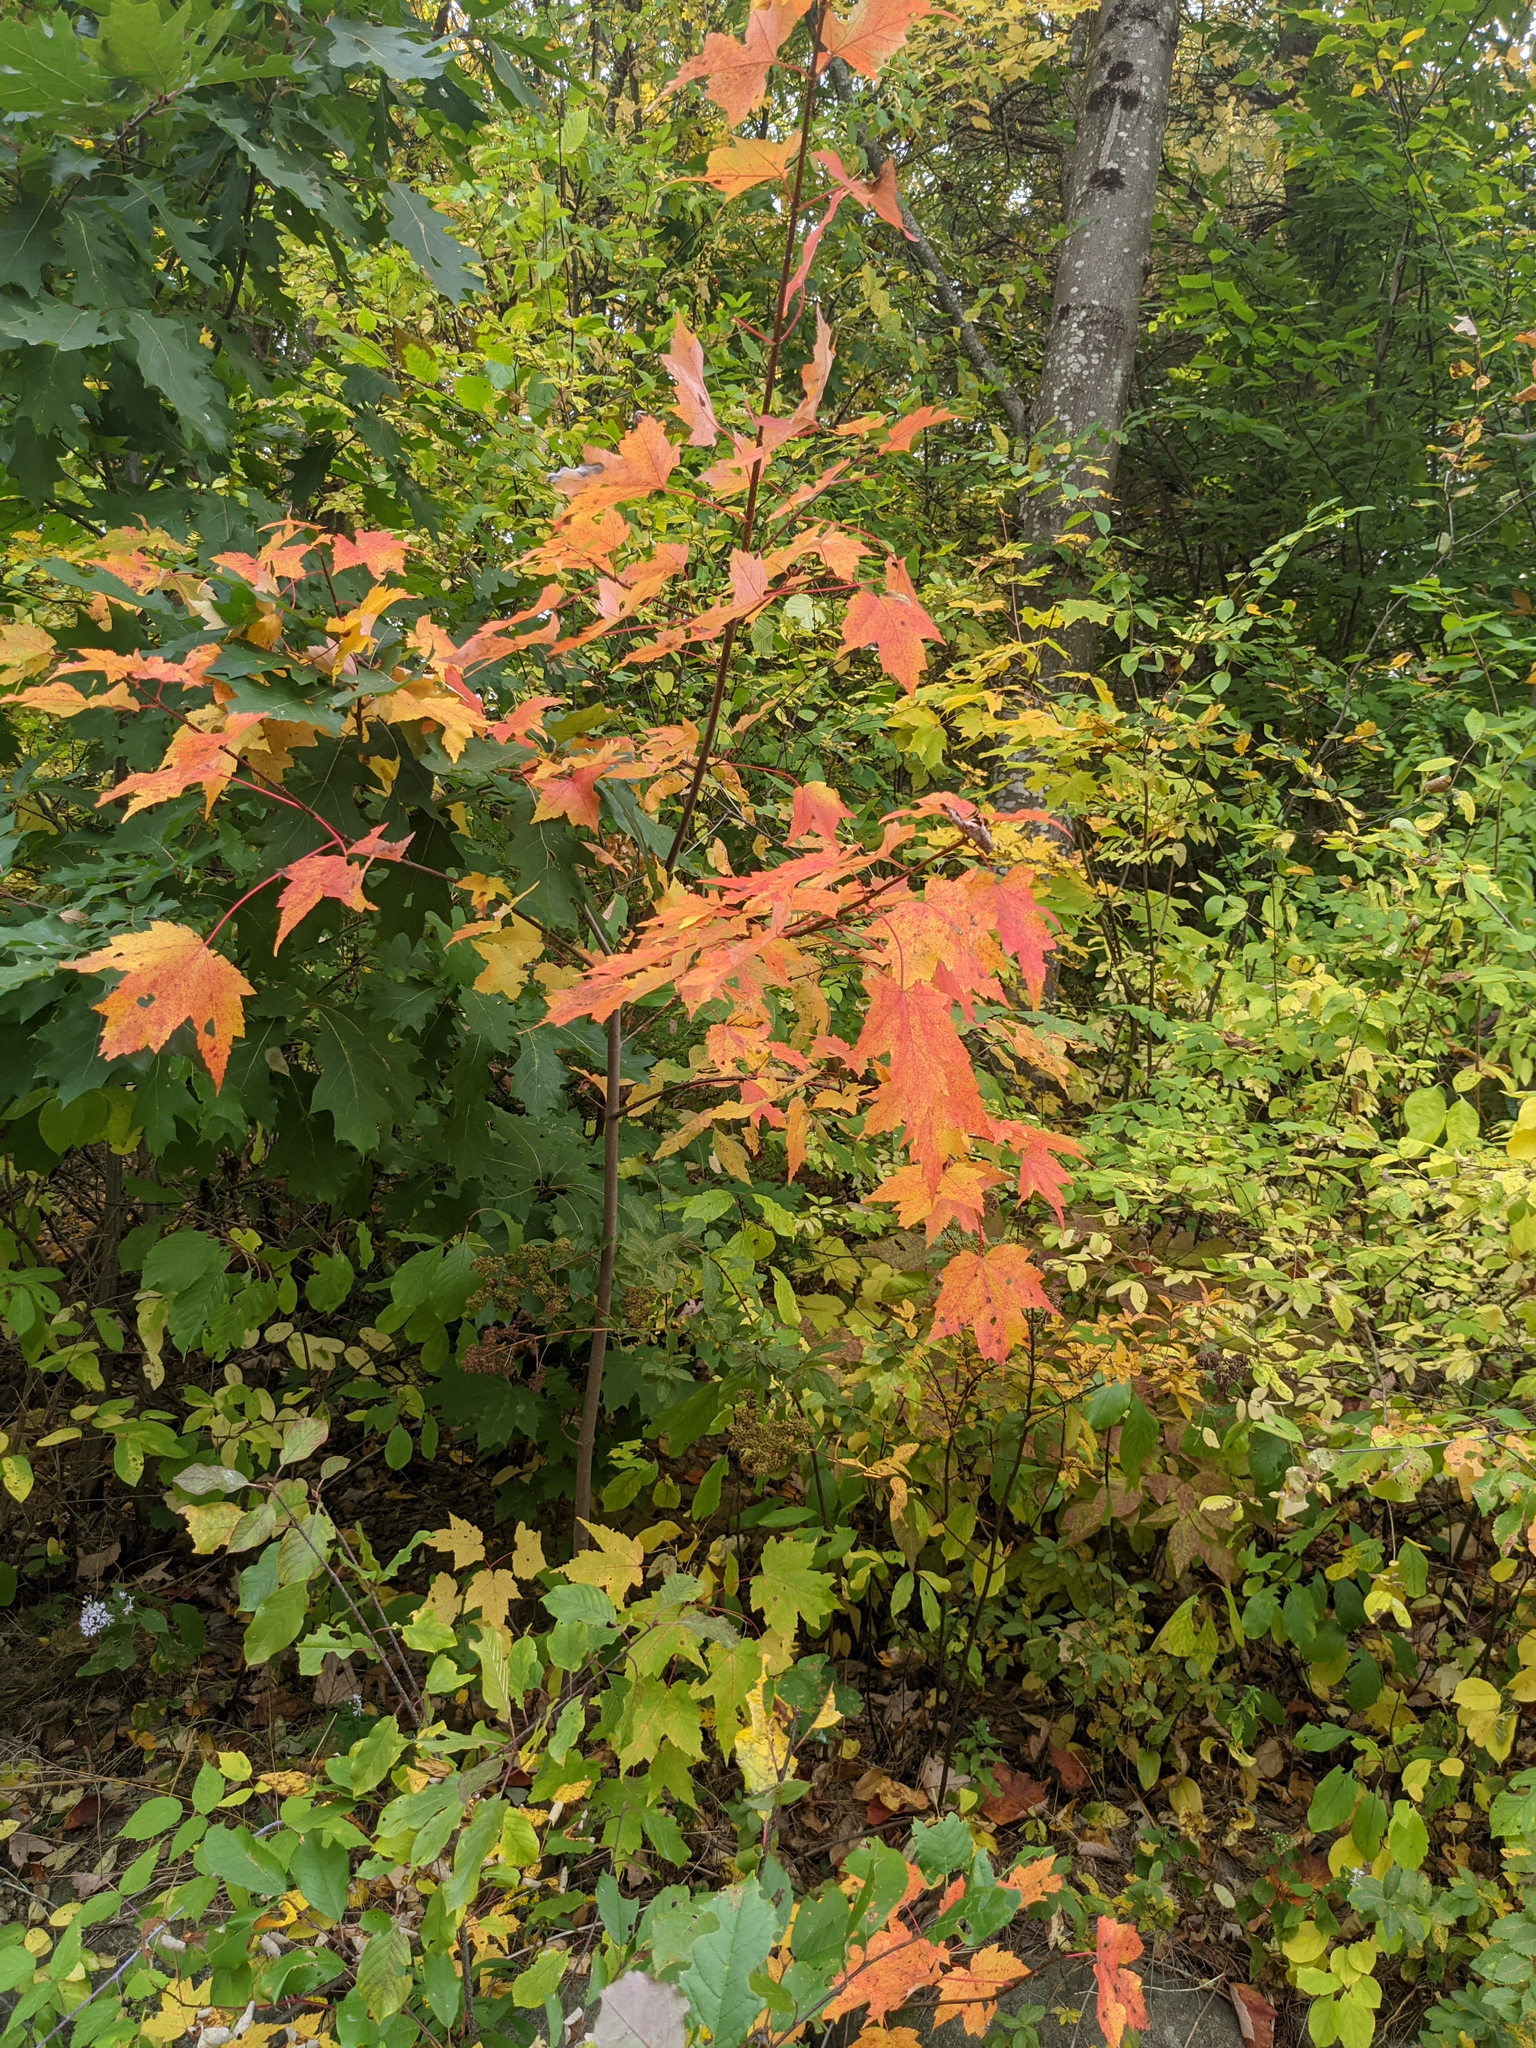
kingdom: Plantae
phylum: Tracheophyta
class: Magnoliopsida
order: Sapindales
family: Sapindaceae
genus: Acer
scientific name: Acer rubrum
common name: Red maple
